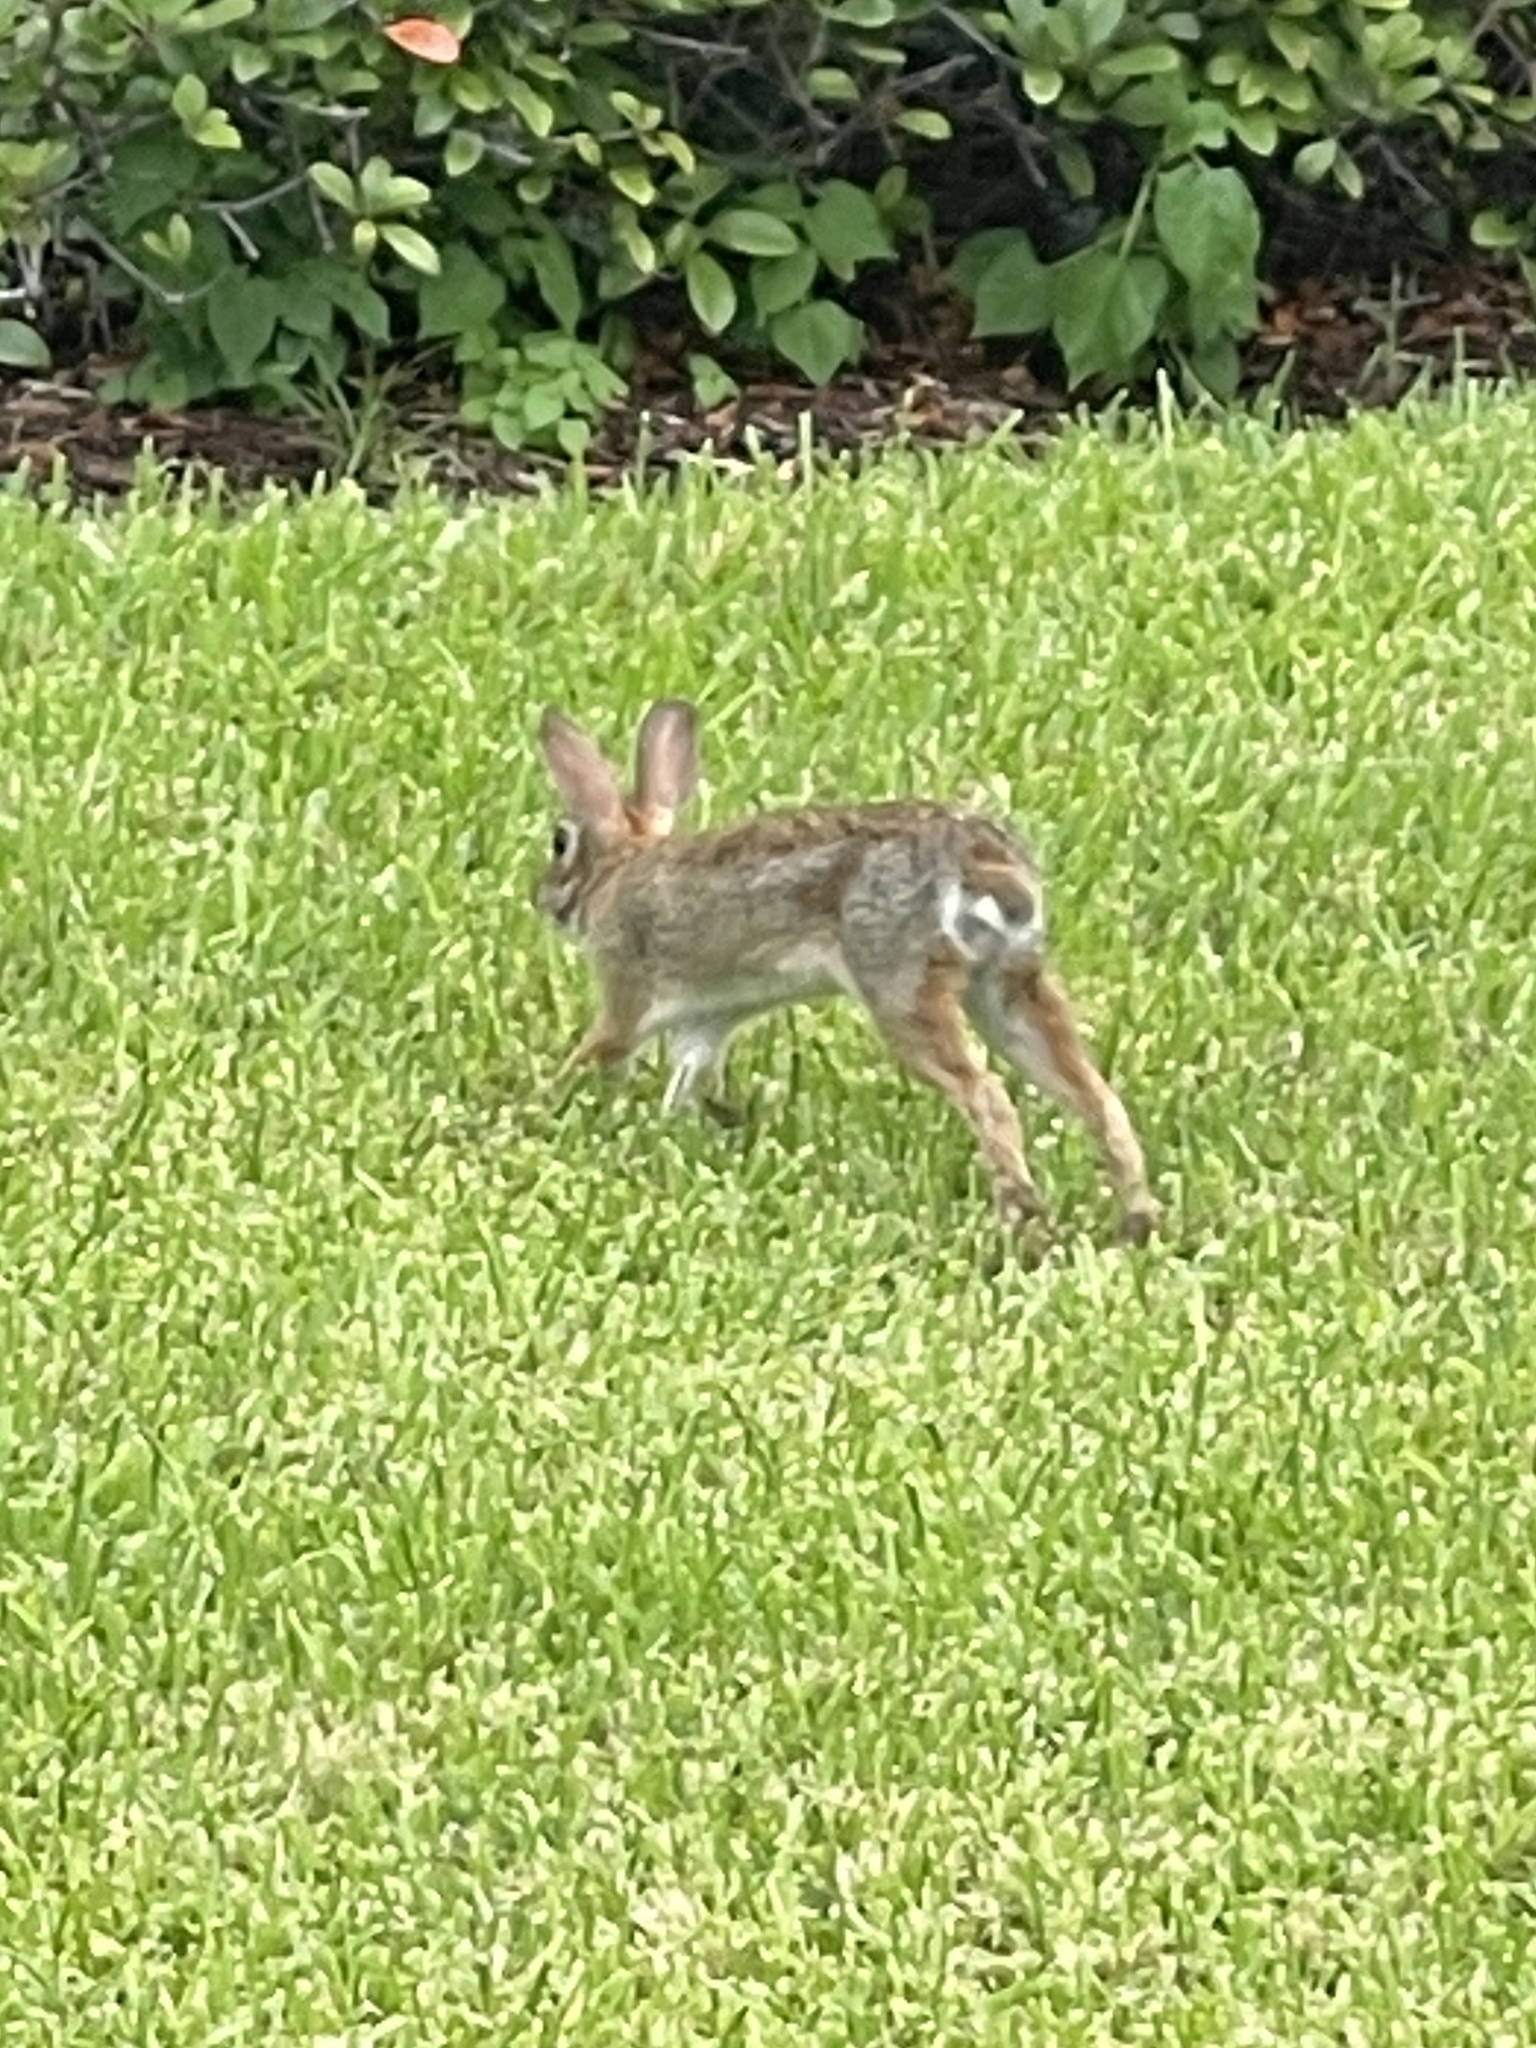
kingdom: Animalia
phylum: Chordata
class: Mammalia
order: Lagomorpha
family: Leporidae
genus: Sylvilagus
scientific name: Sylvilagus floridanus
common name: Eastern cottontail
